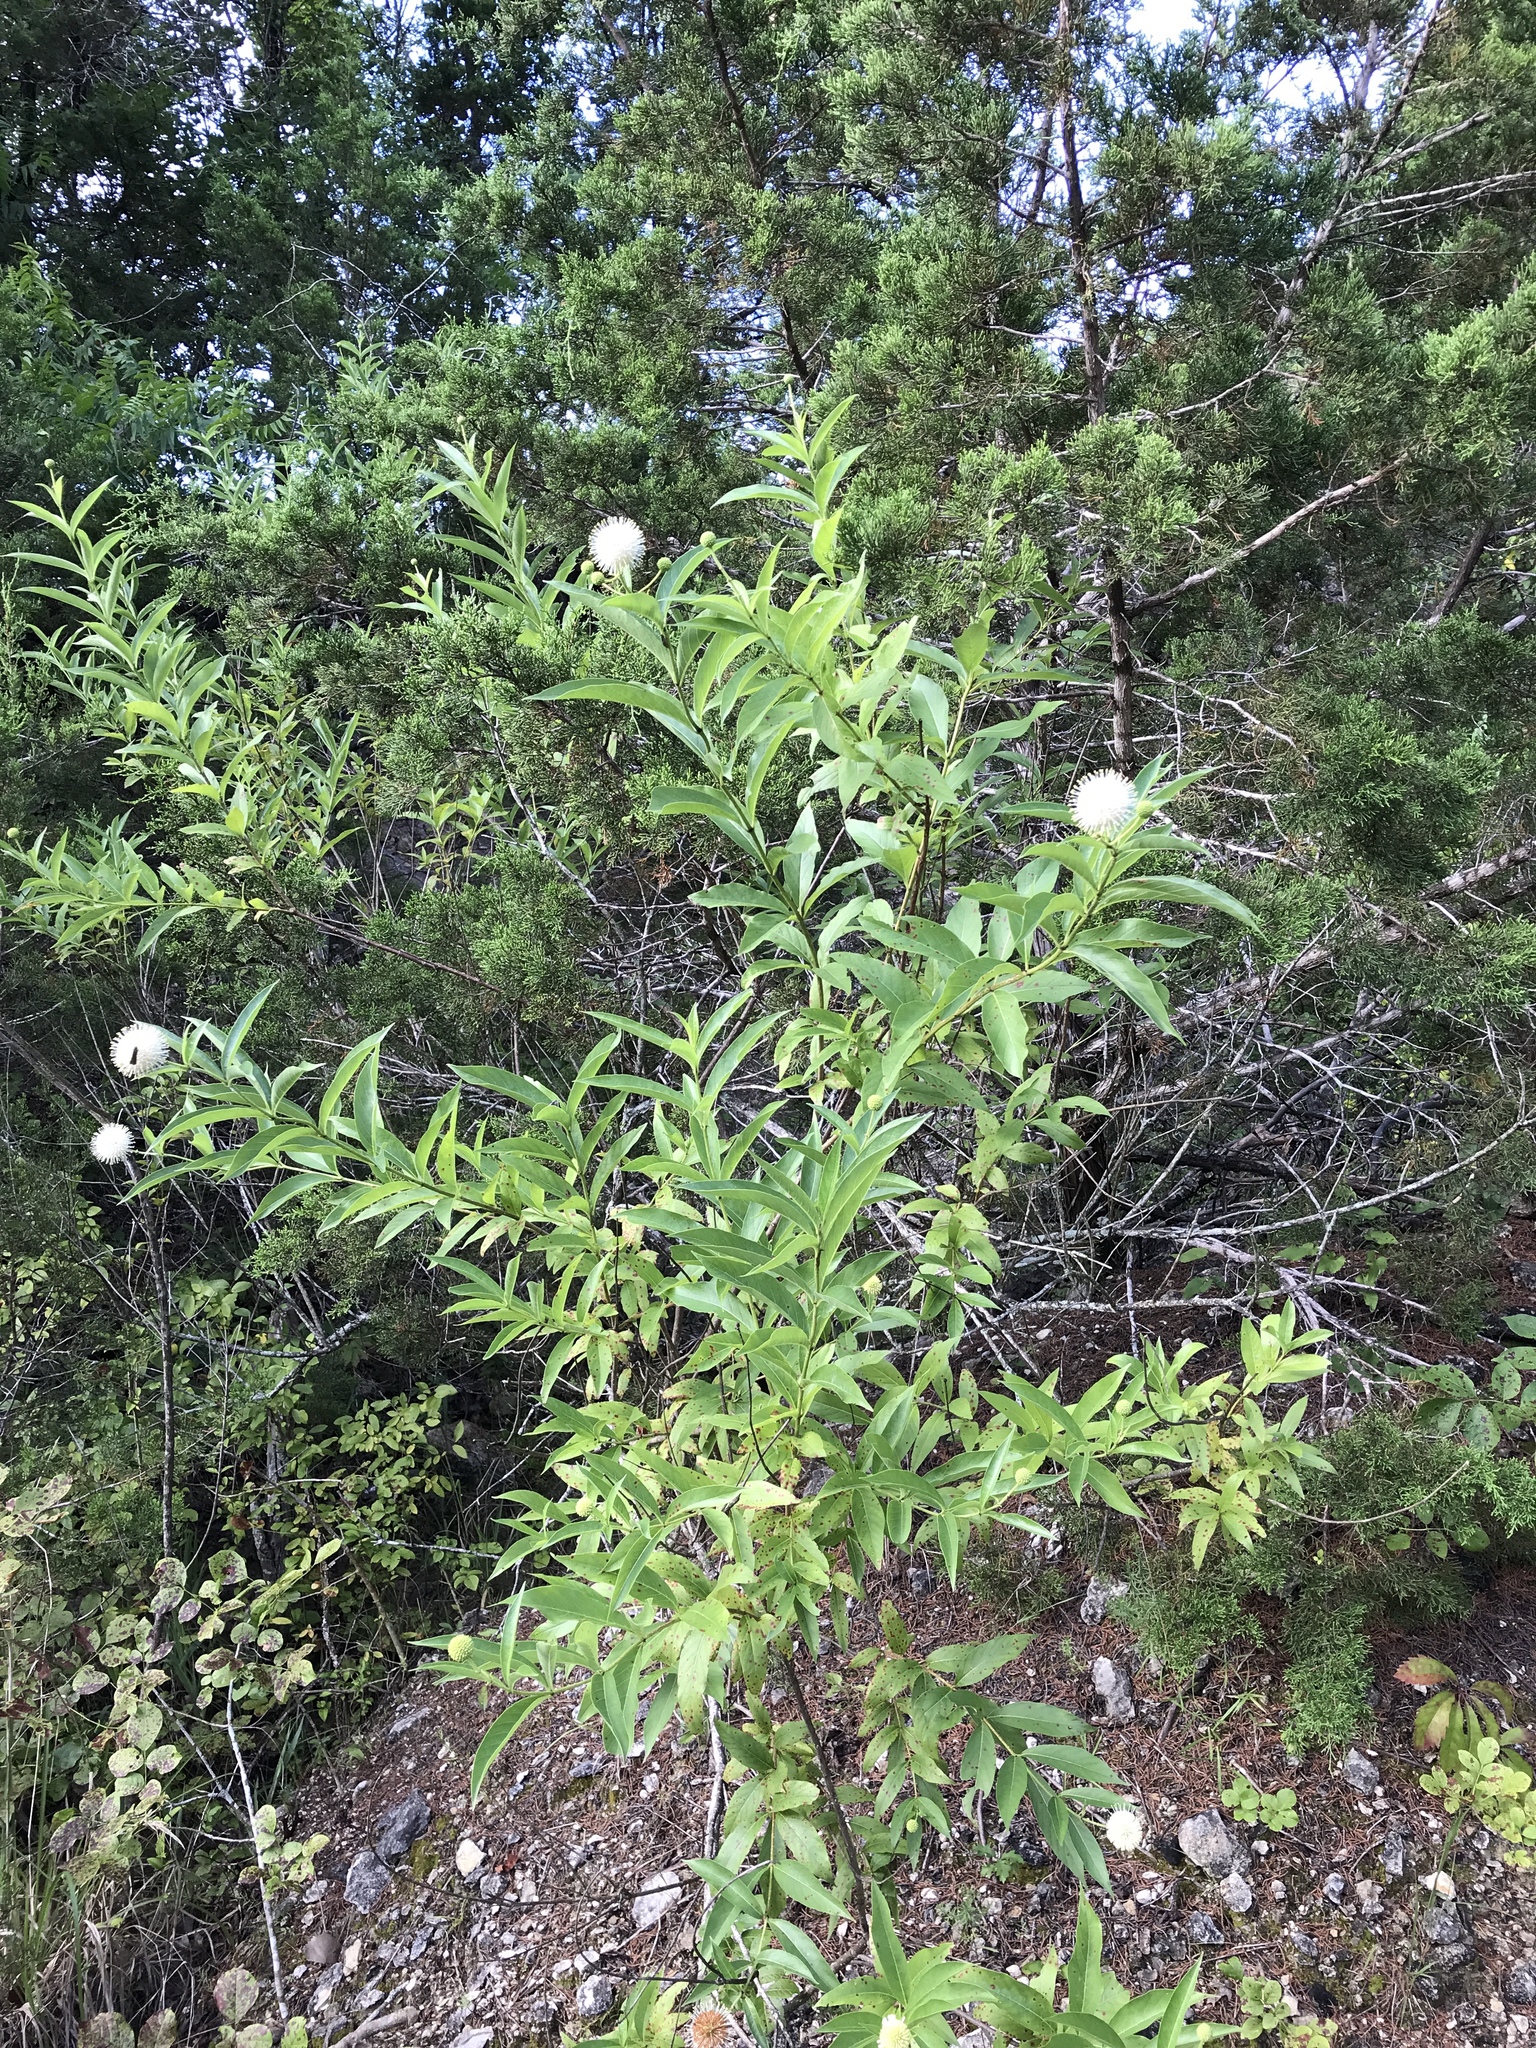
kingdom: Plantae
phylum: Tracheophyta
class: Magnoliopsida
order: Gentianales
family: Rubiaceae
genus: Cephalanthus
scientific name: Cephalanthus occidentalis
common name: Button-willow
